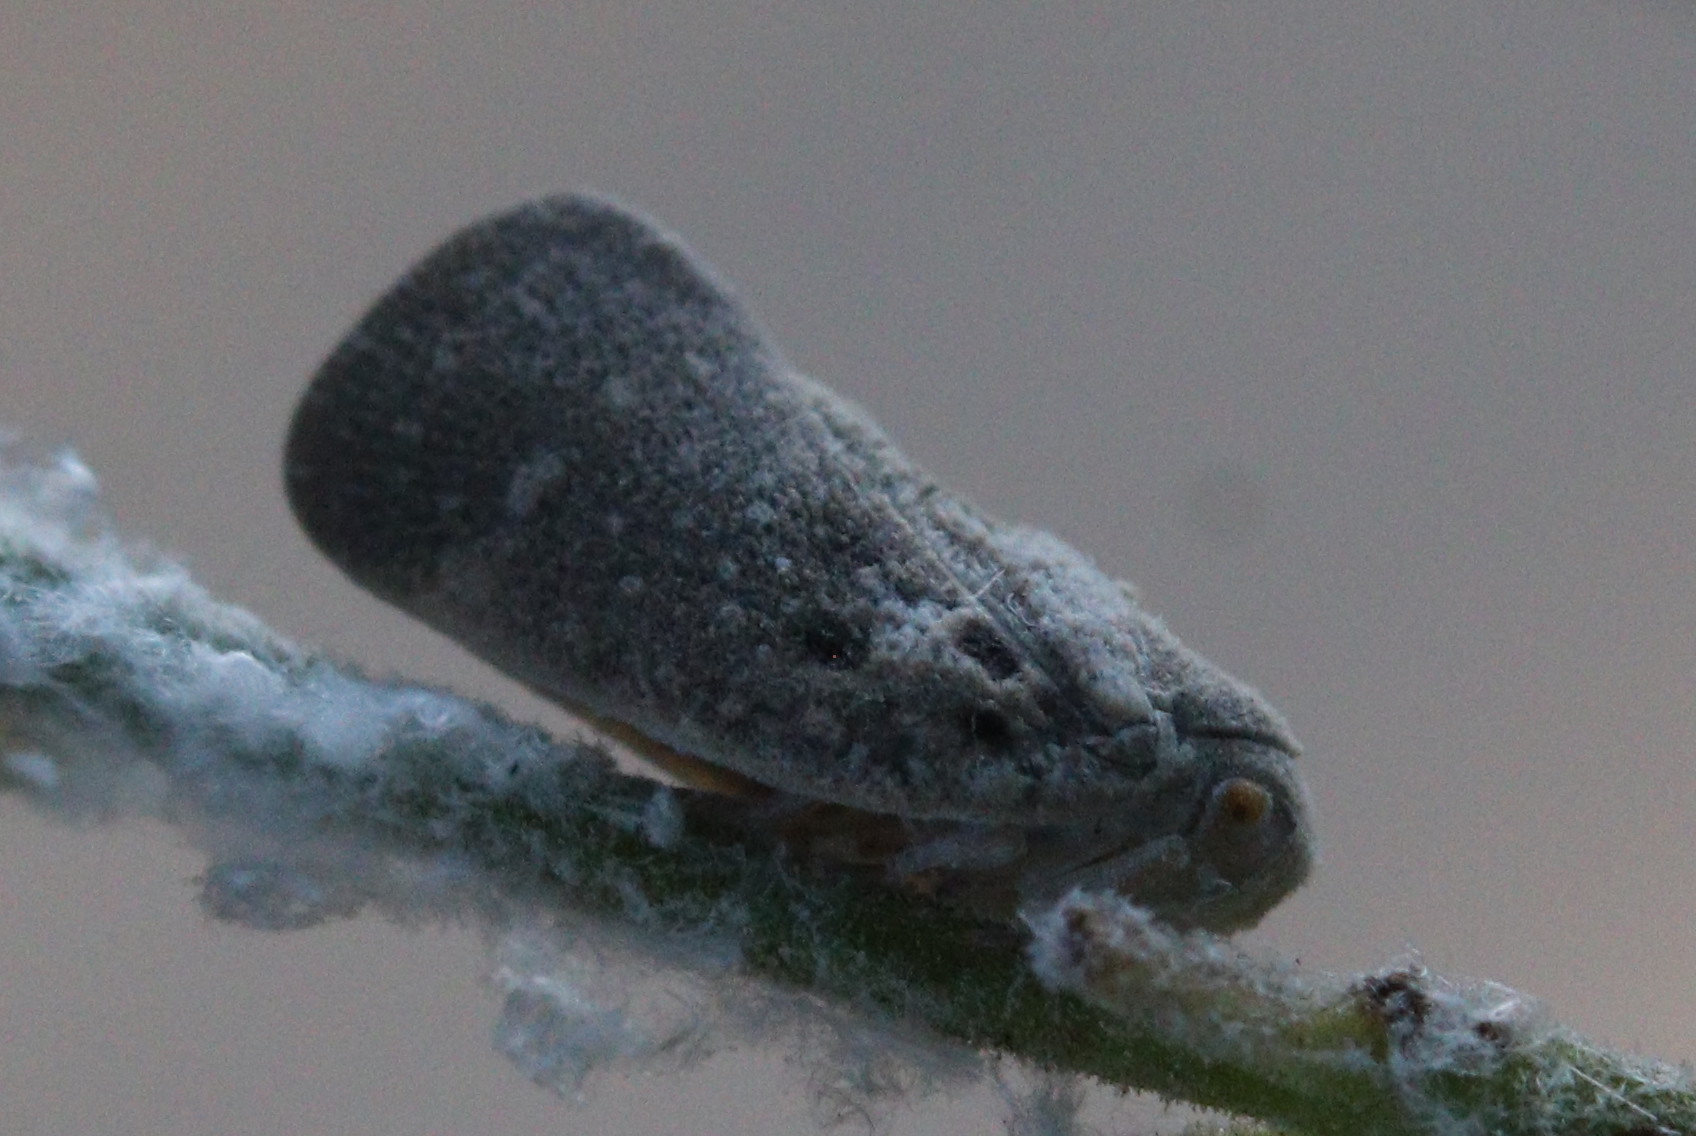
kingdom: Animalia
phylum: Arthropoda
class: Insecta
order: Hemiptera
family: Flatidae
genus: Metcalfa
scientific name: Metcalfa pruinosa
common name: Citrus flatid planthopper
